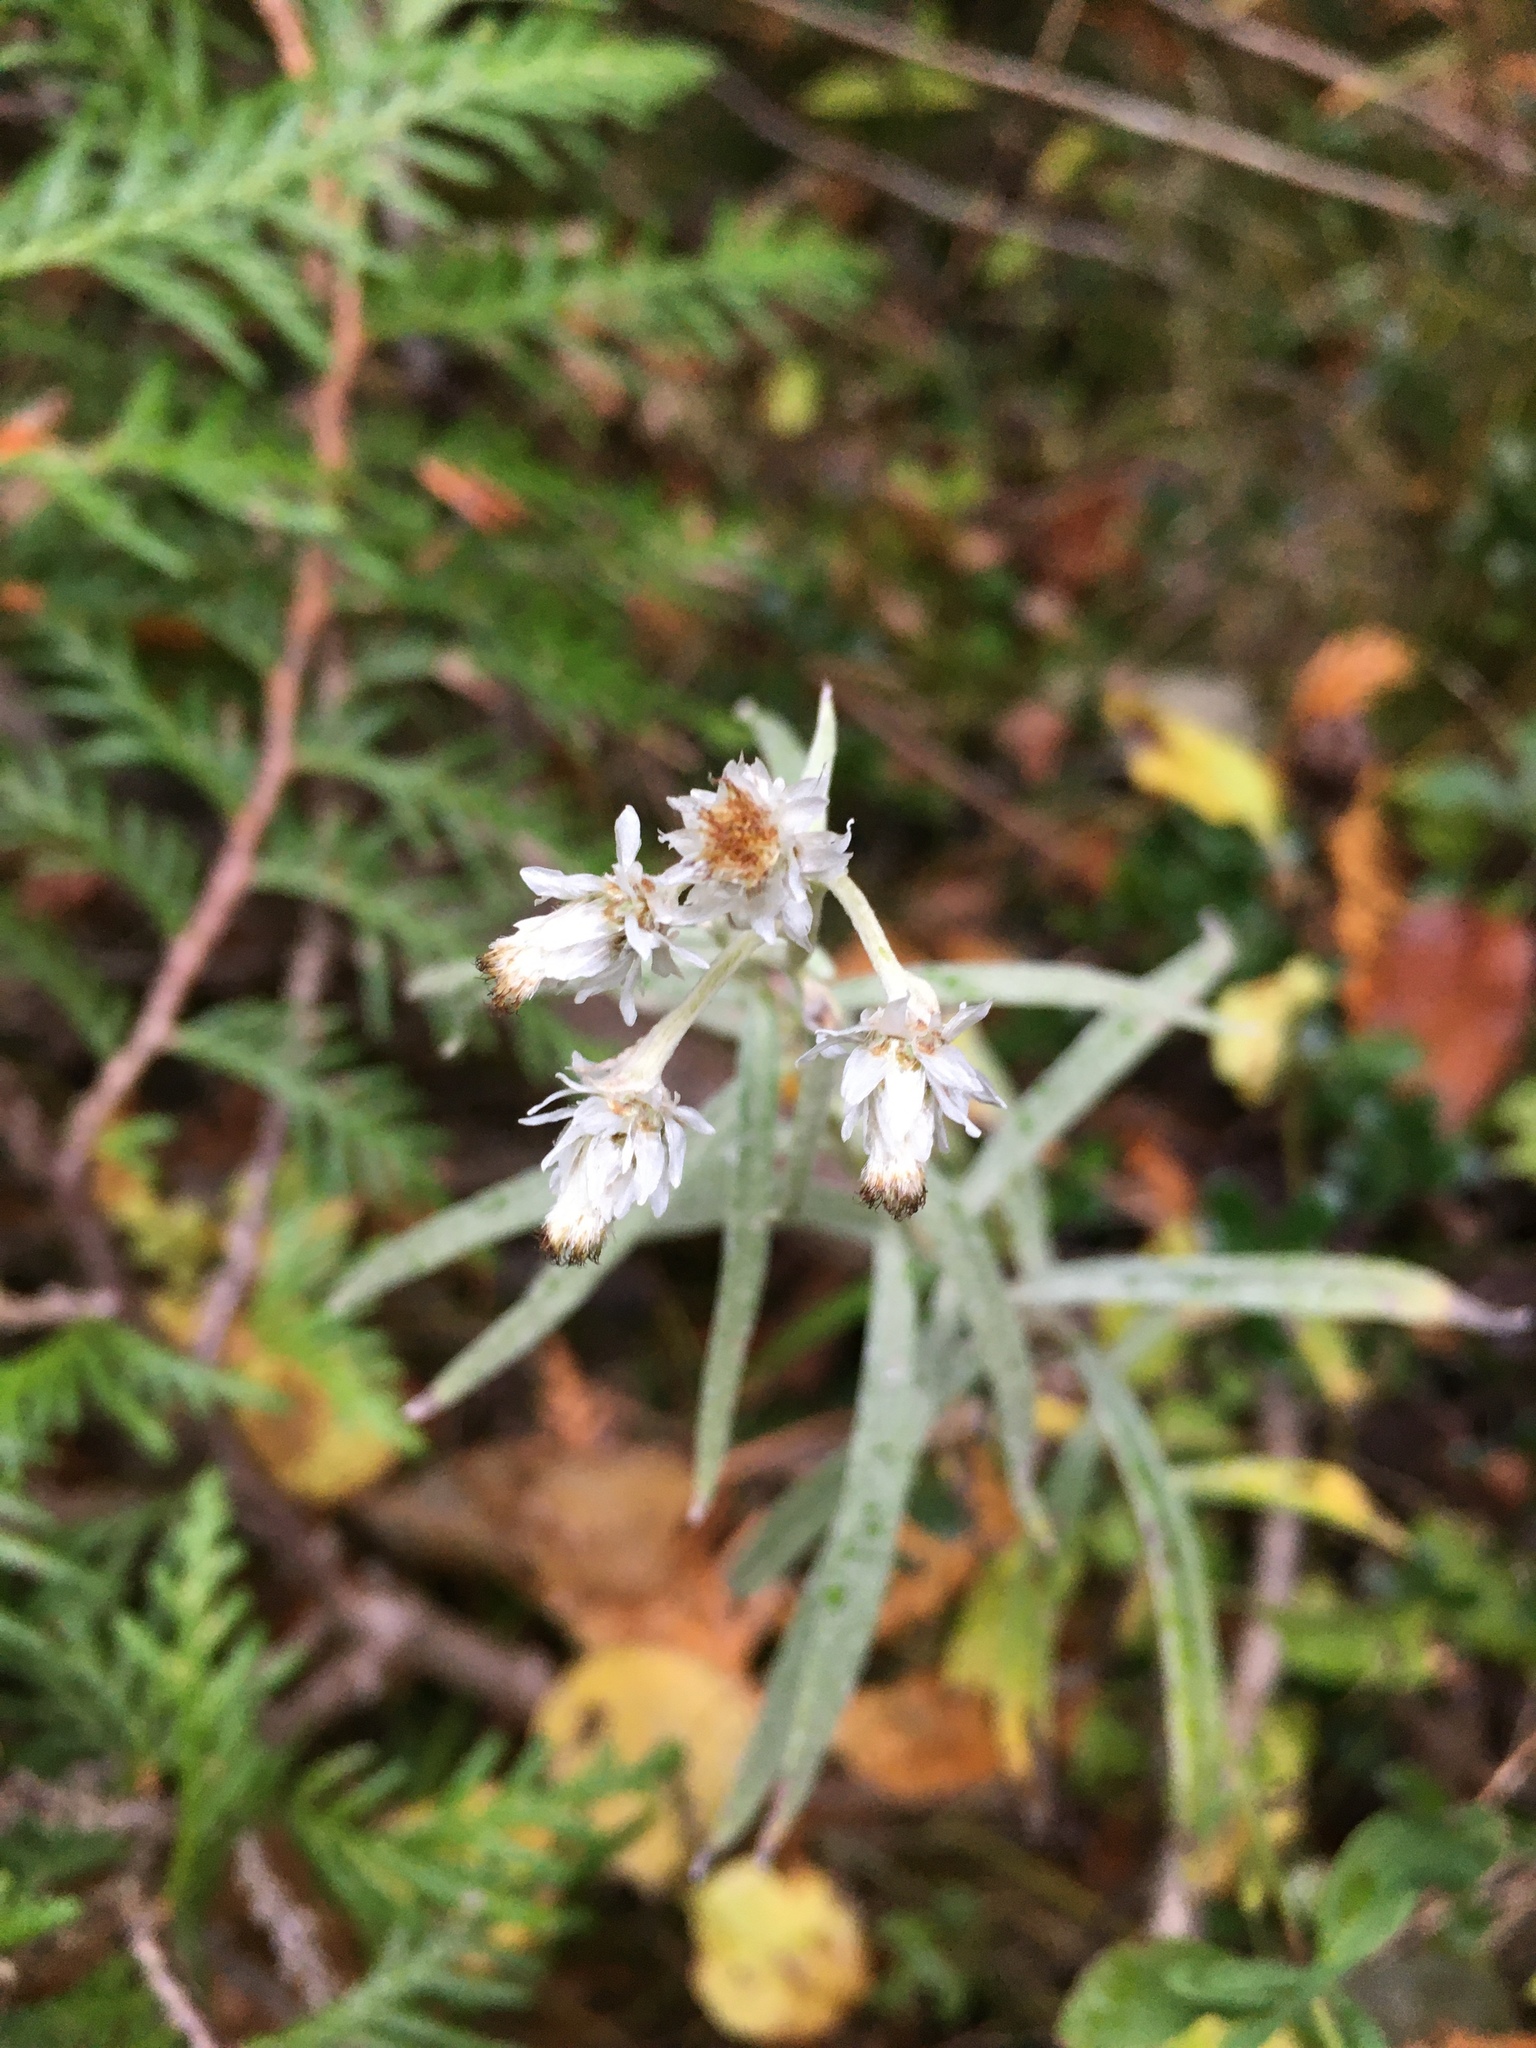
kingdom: Plantae
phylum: Tracheophyta
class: Magnoliopsida
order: Asterales
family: Asteraceae
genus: Anaphalis
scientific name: Anaphalis margaritacea
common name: Pearly everlasting
